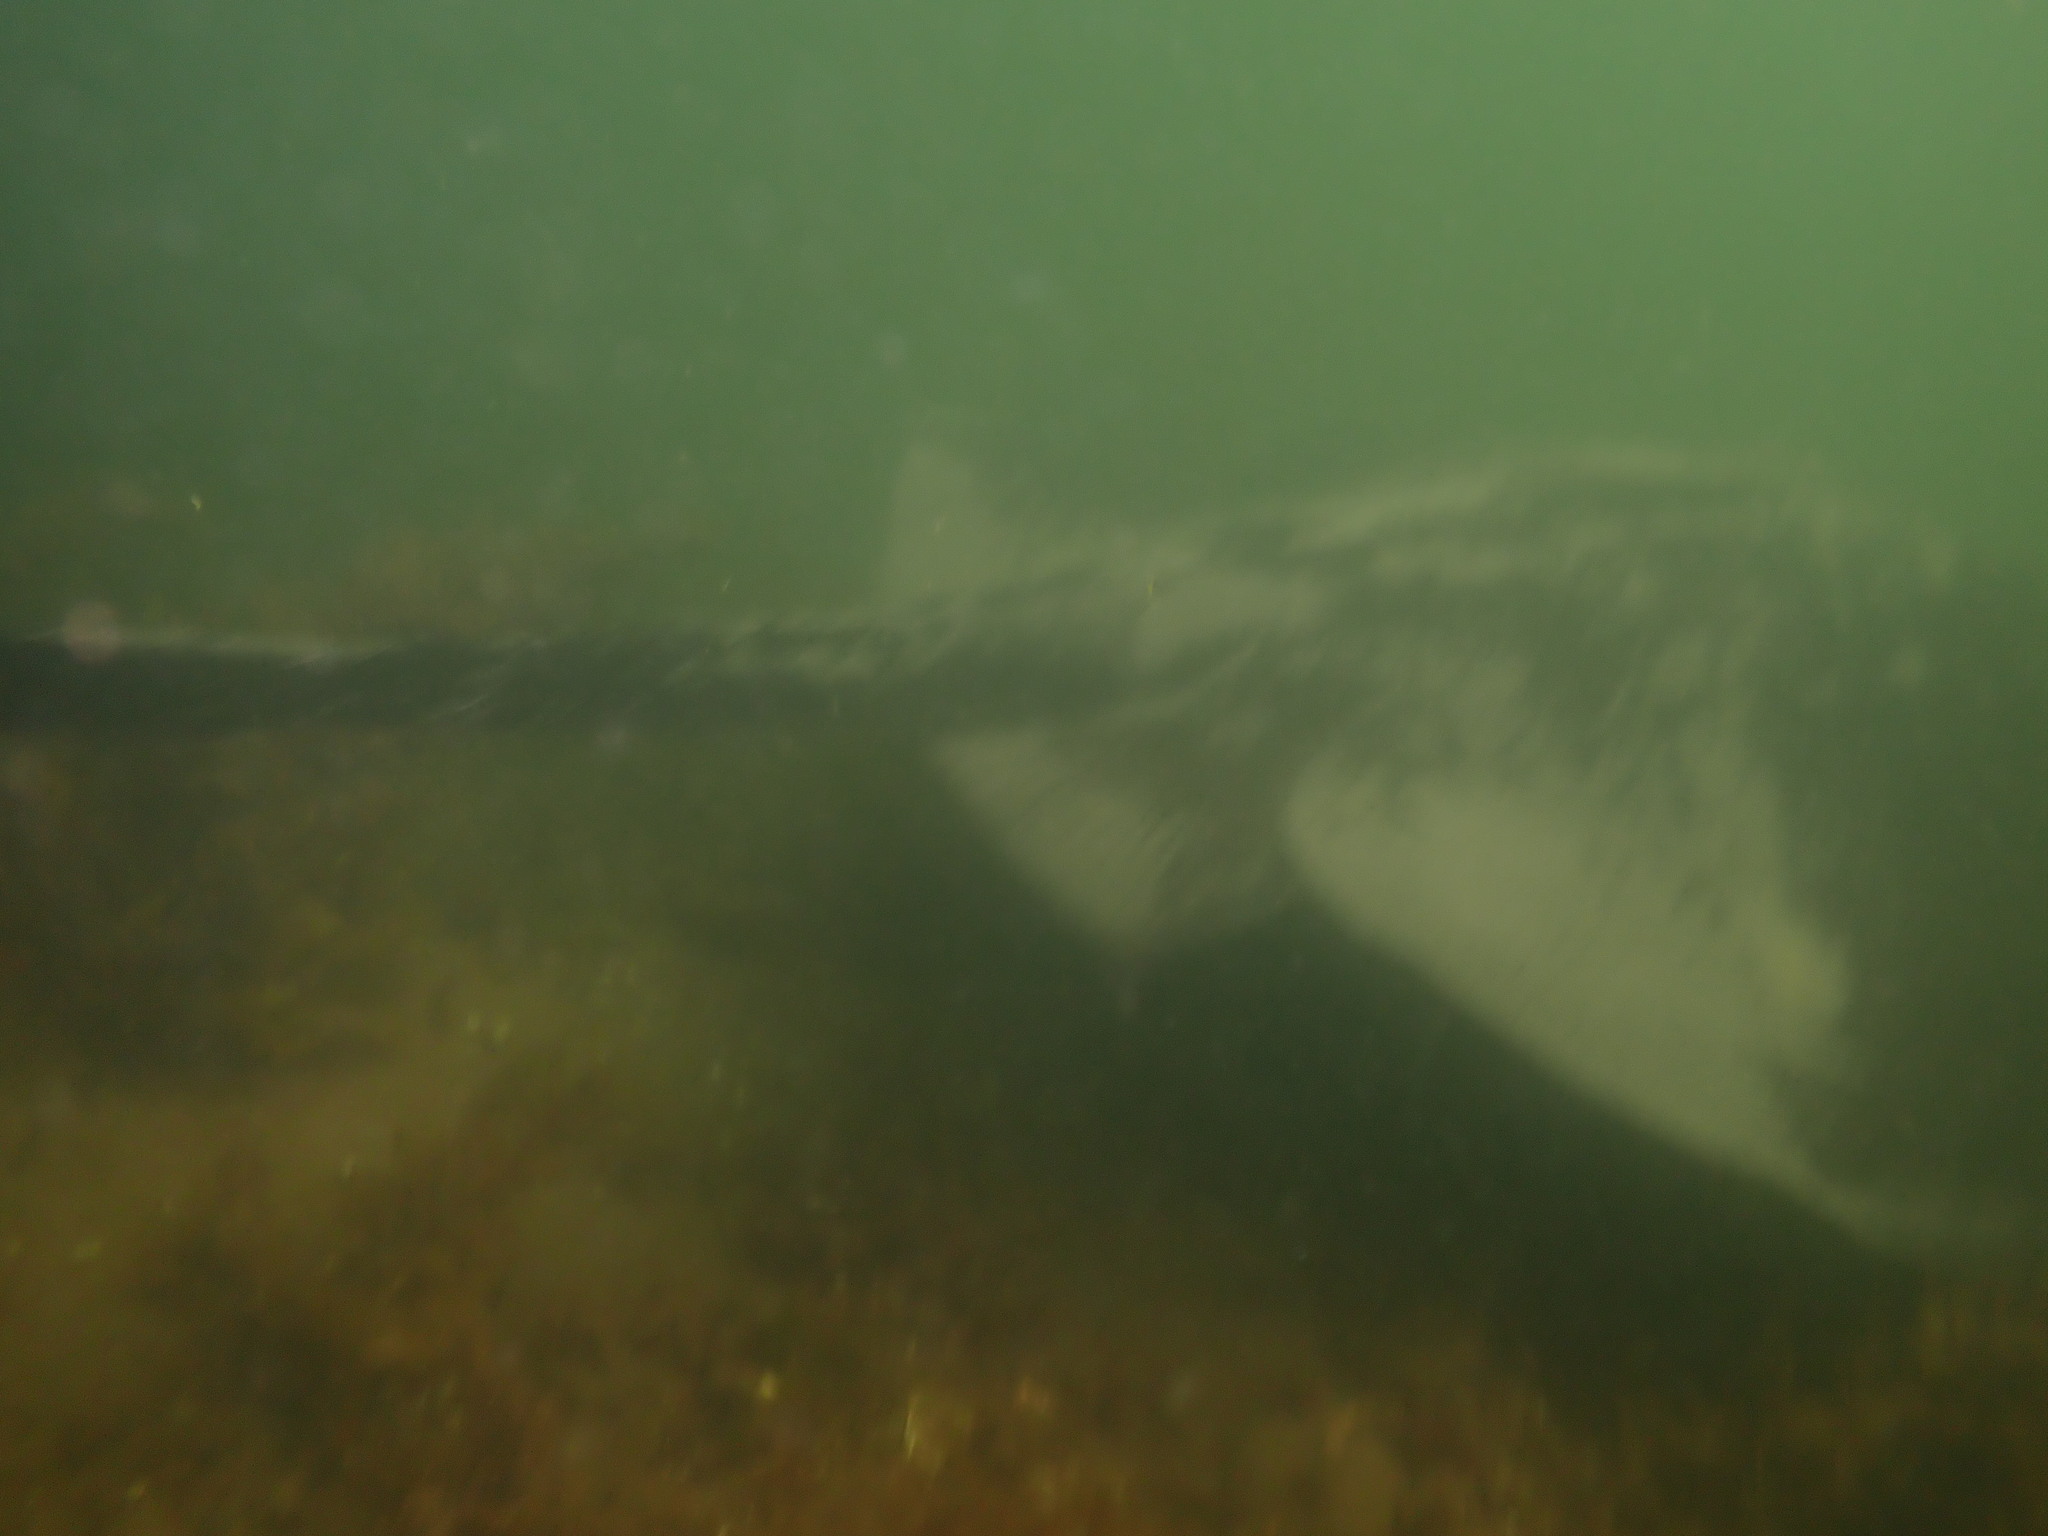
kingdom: Animalia
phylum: Chordata
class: Elasmobranchii
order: Myliobatiformes
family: Dasyatidae
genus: Bathytoshia
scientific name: Bathytoshia brevicaudata
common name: Short-tail stingray
